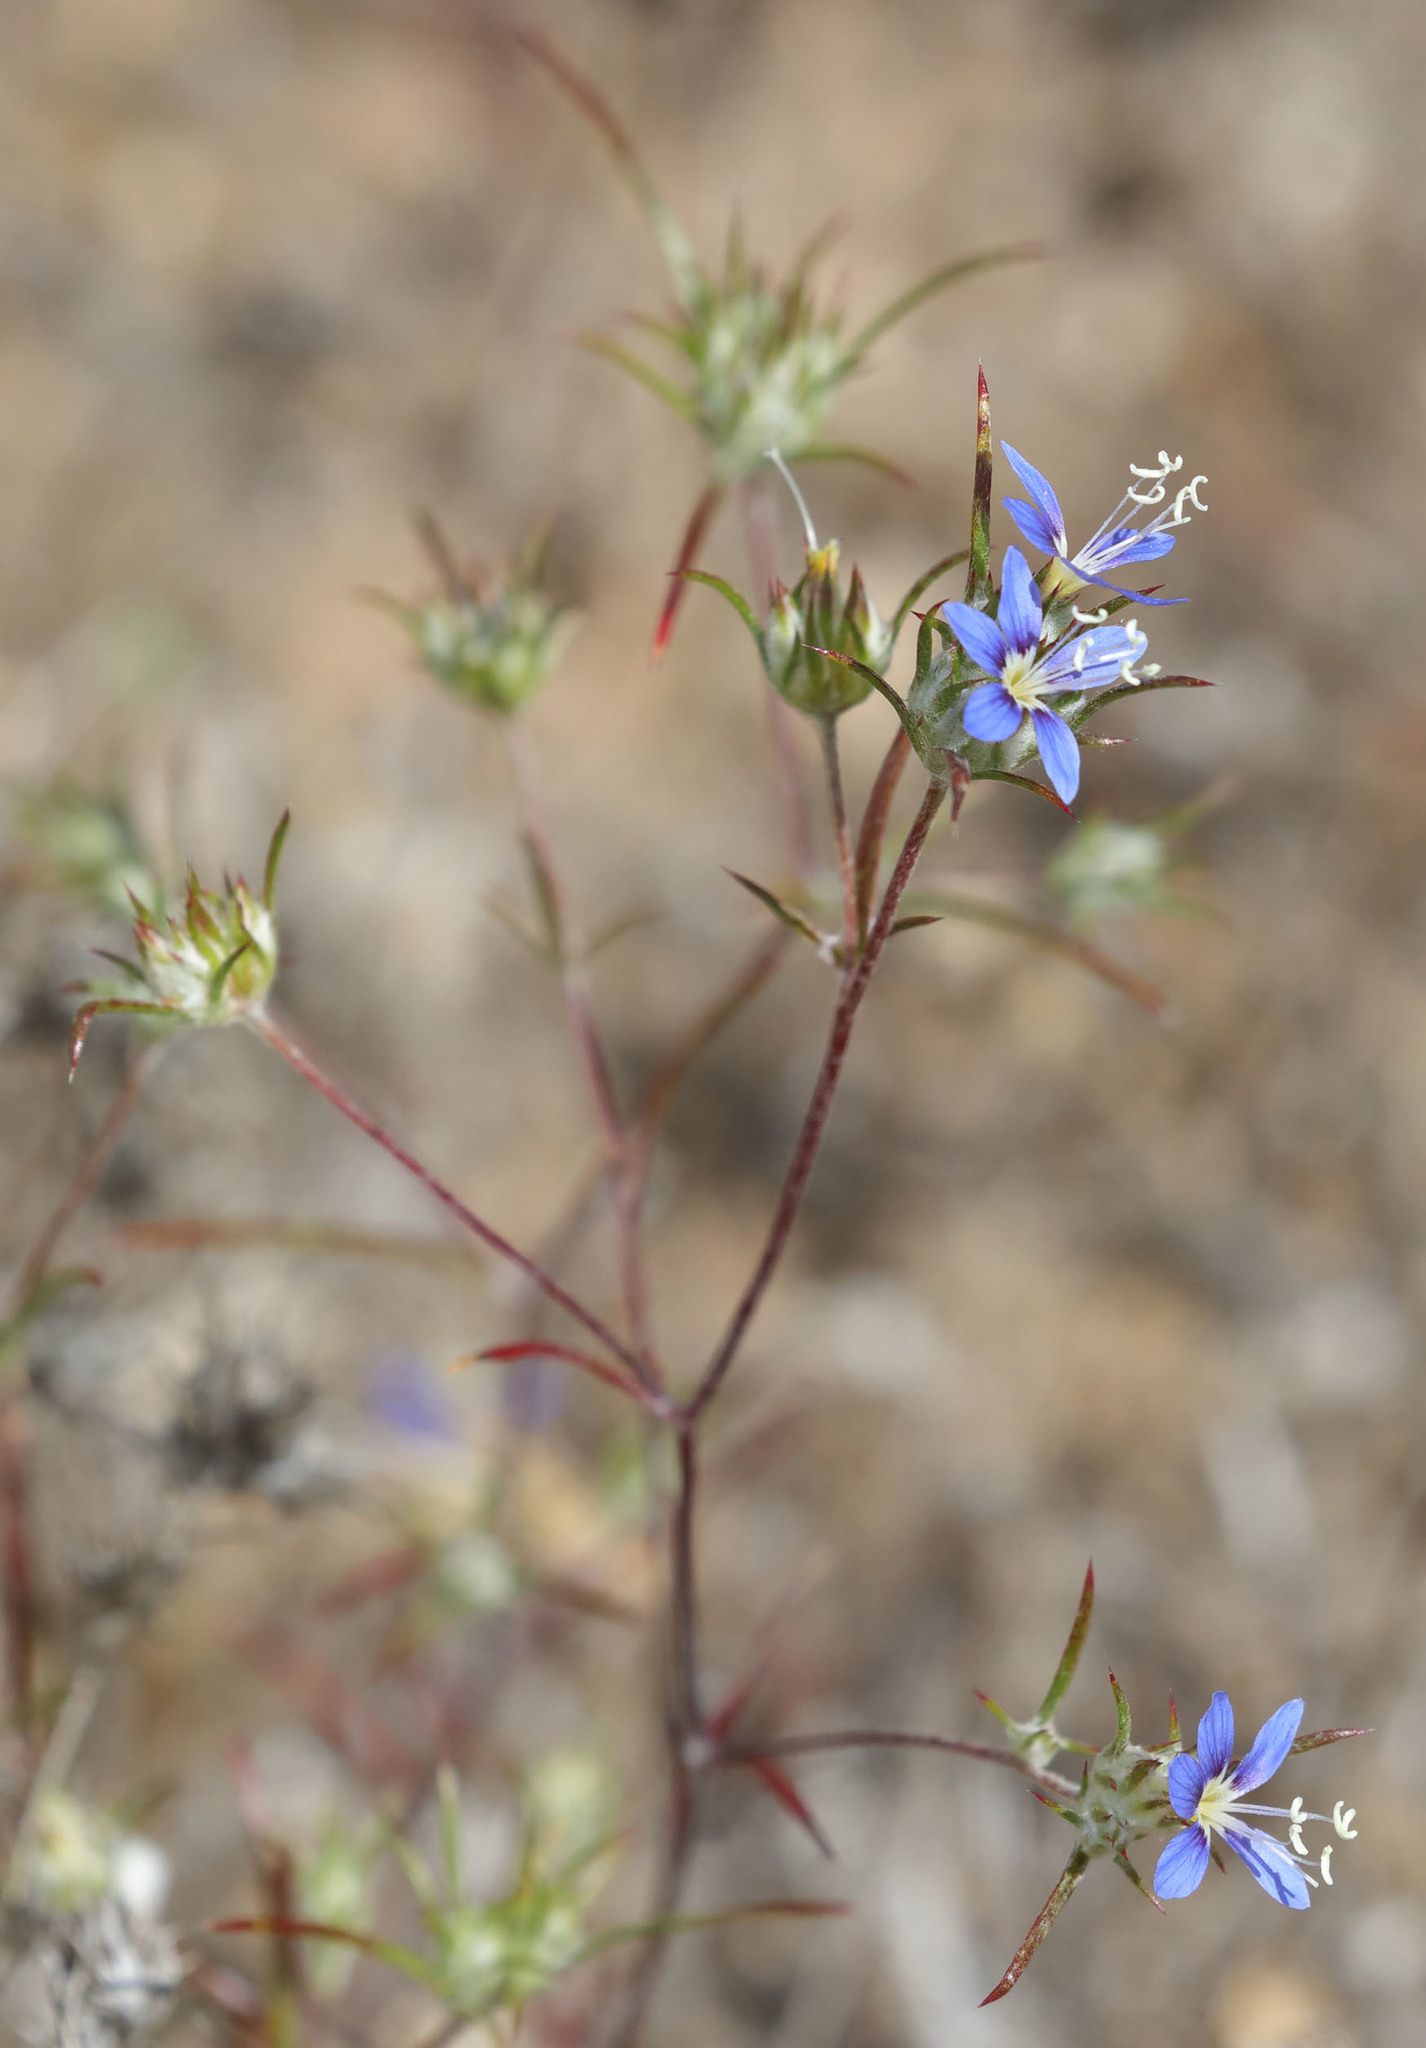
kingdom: Plantae
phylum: Tracheophyta
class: Magnoliopsida
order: Ericales
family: Polemoniaceae
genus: Eriastrum
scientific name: Eriastrum virgatum
